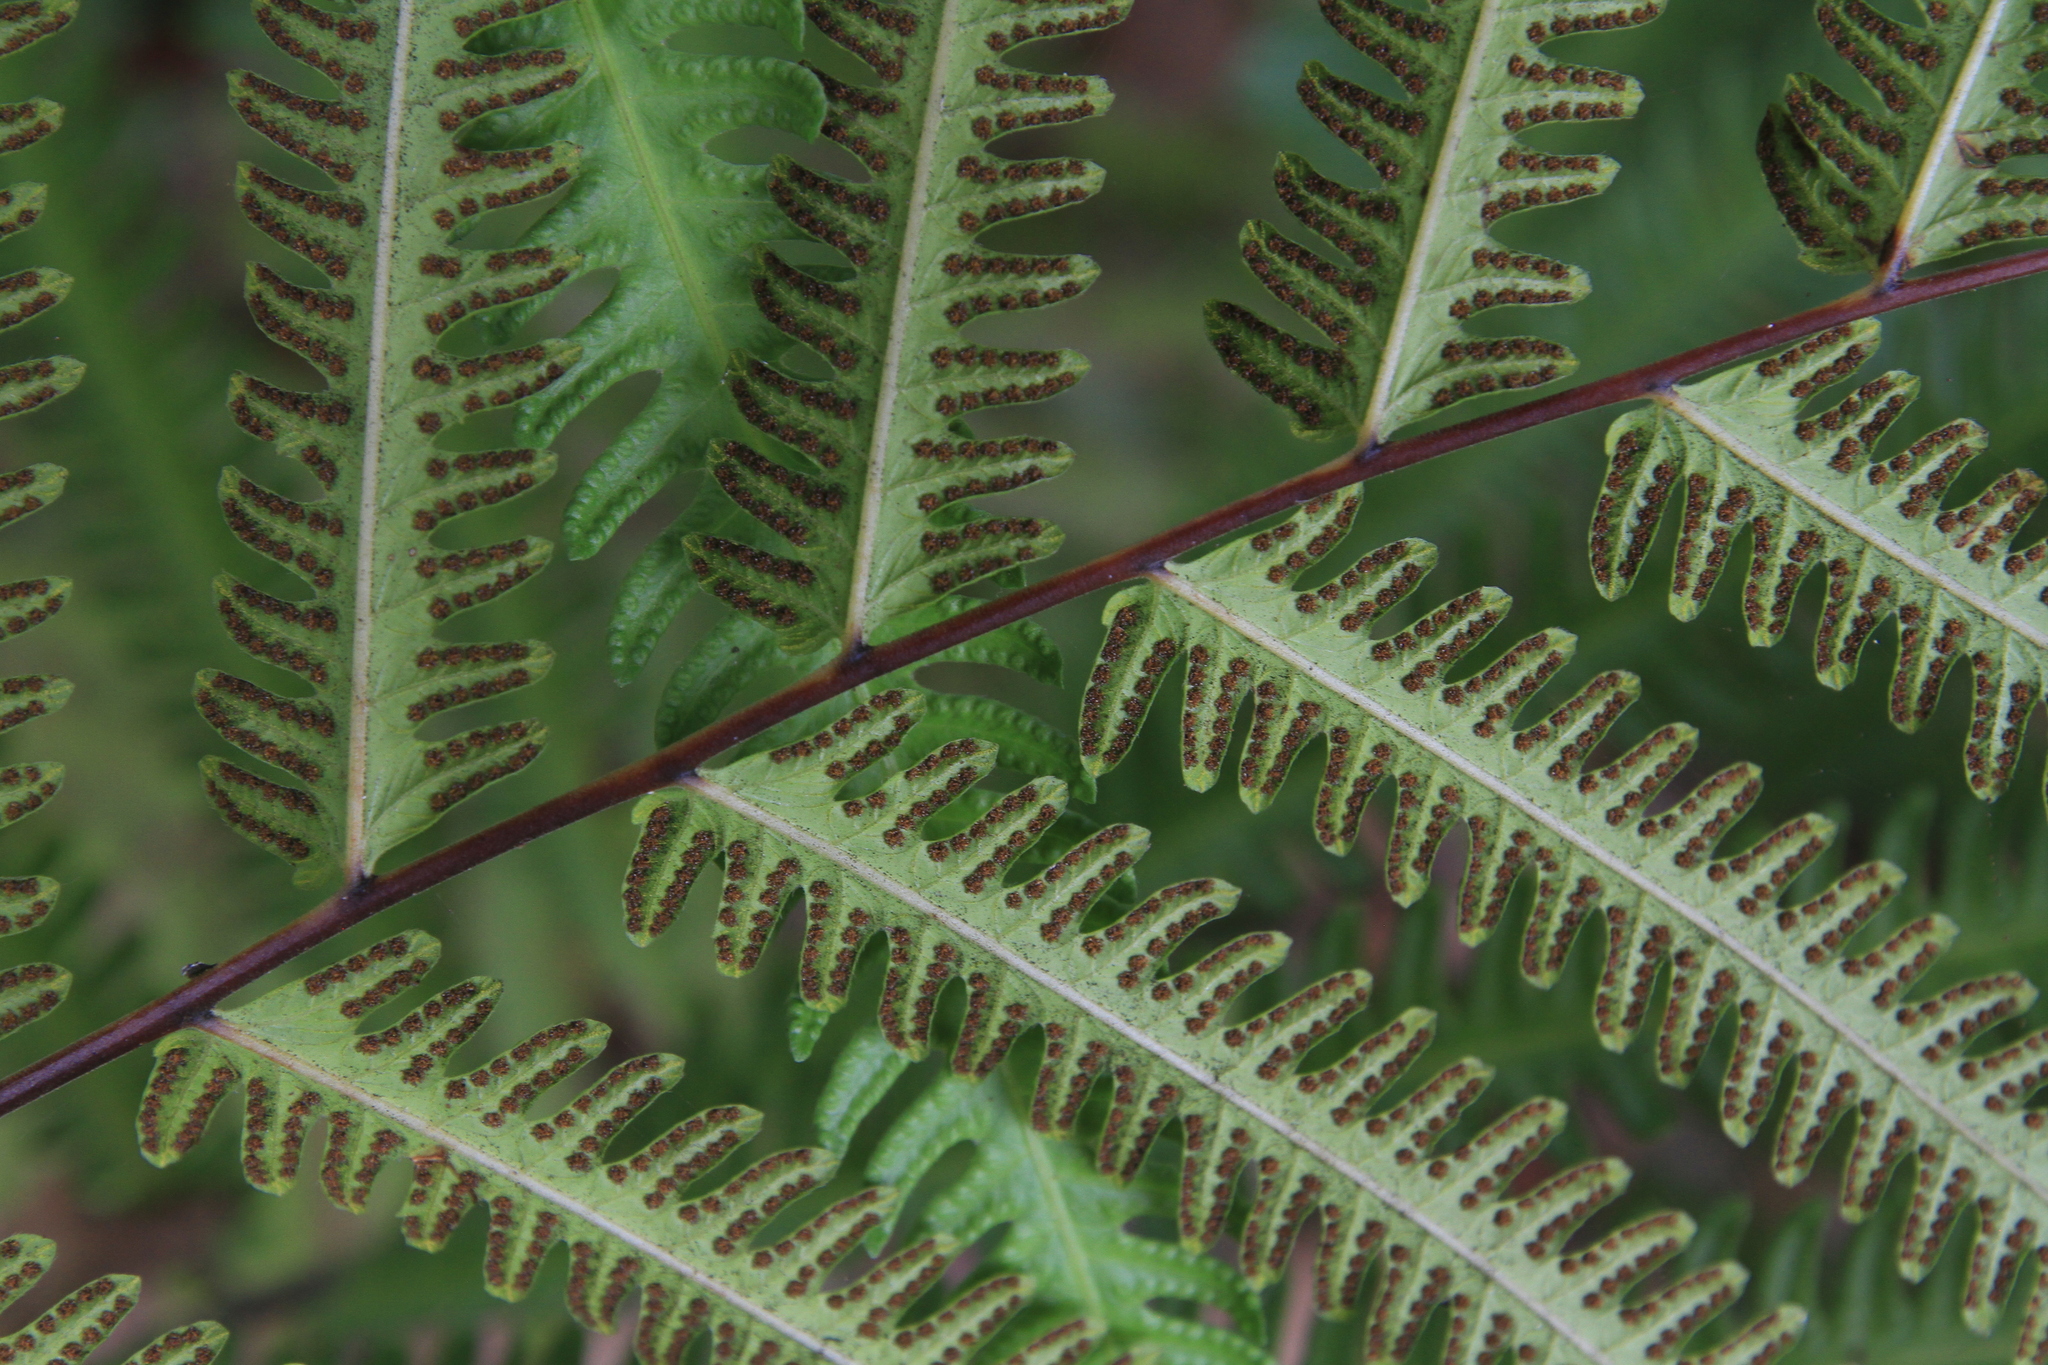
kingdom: Plantae
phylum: Tracheophyta
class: Polypodiopsida
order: Polypodiales
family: Thelypteridaceae
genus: Amblovenatum
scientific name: Amblovenatum opulentum
